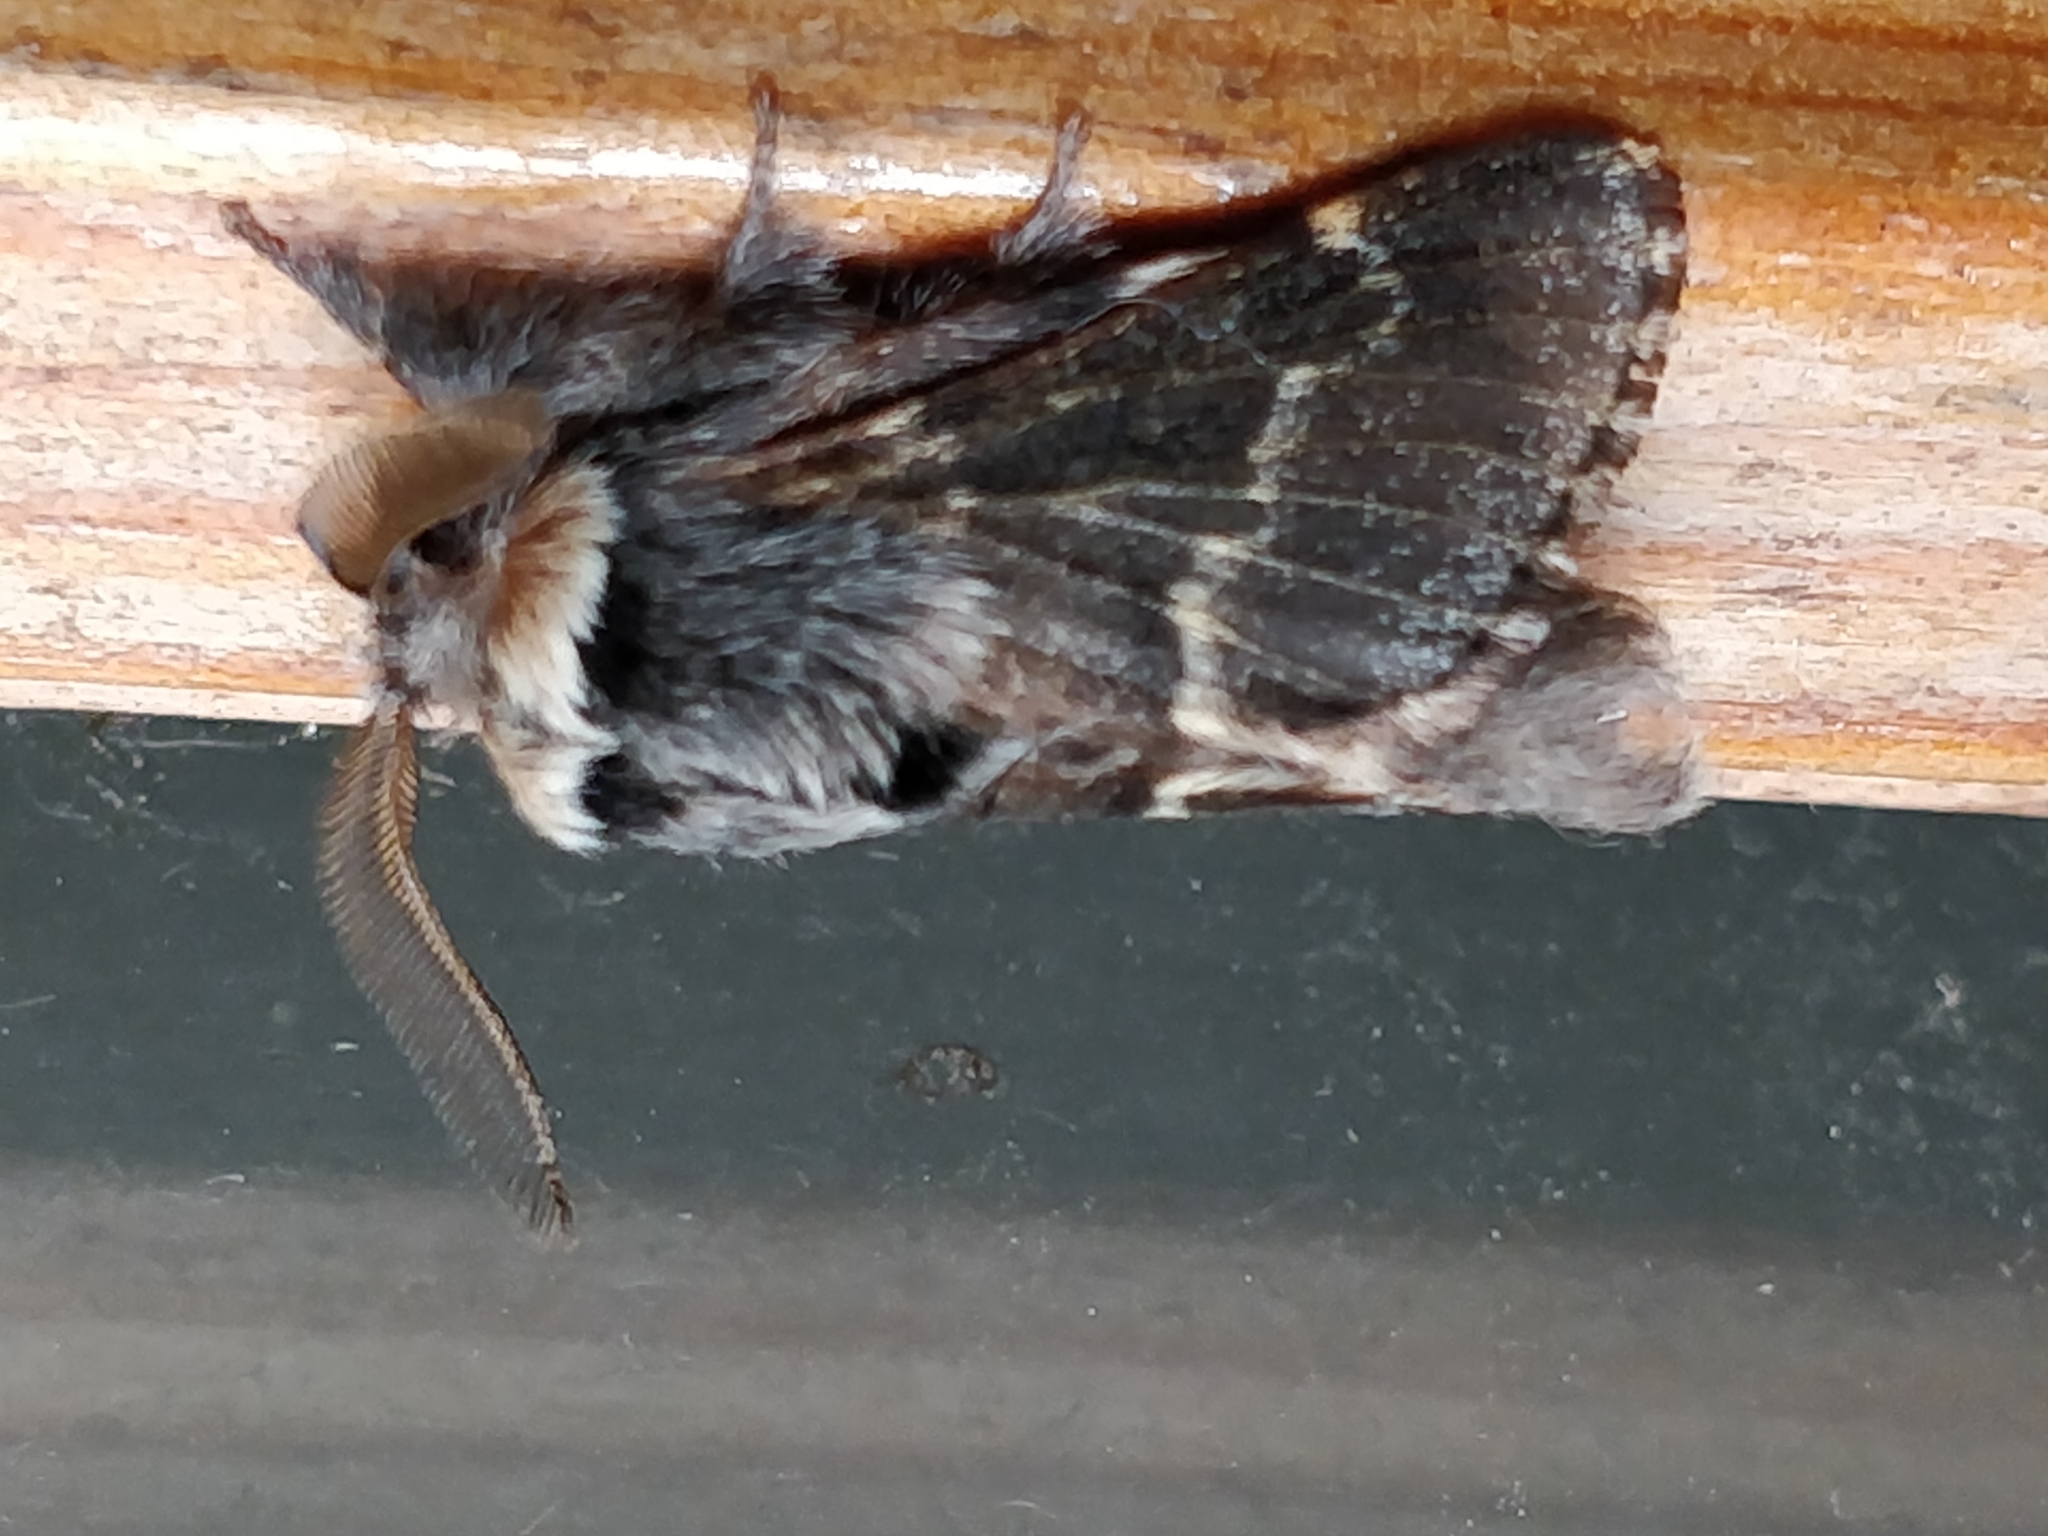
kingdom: Animalia
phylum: Arthropoda
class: Insecta
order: Lepidoptera
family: Lasiocampidae
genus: Poecilocampa
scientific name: Poecilocampa populi
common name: December moth
